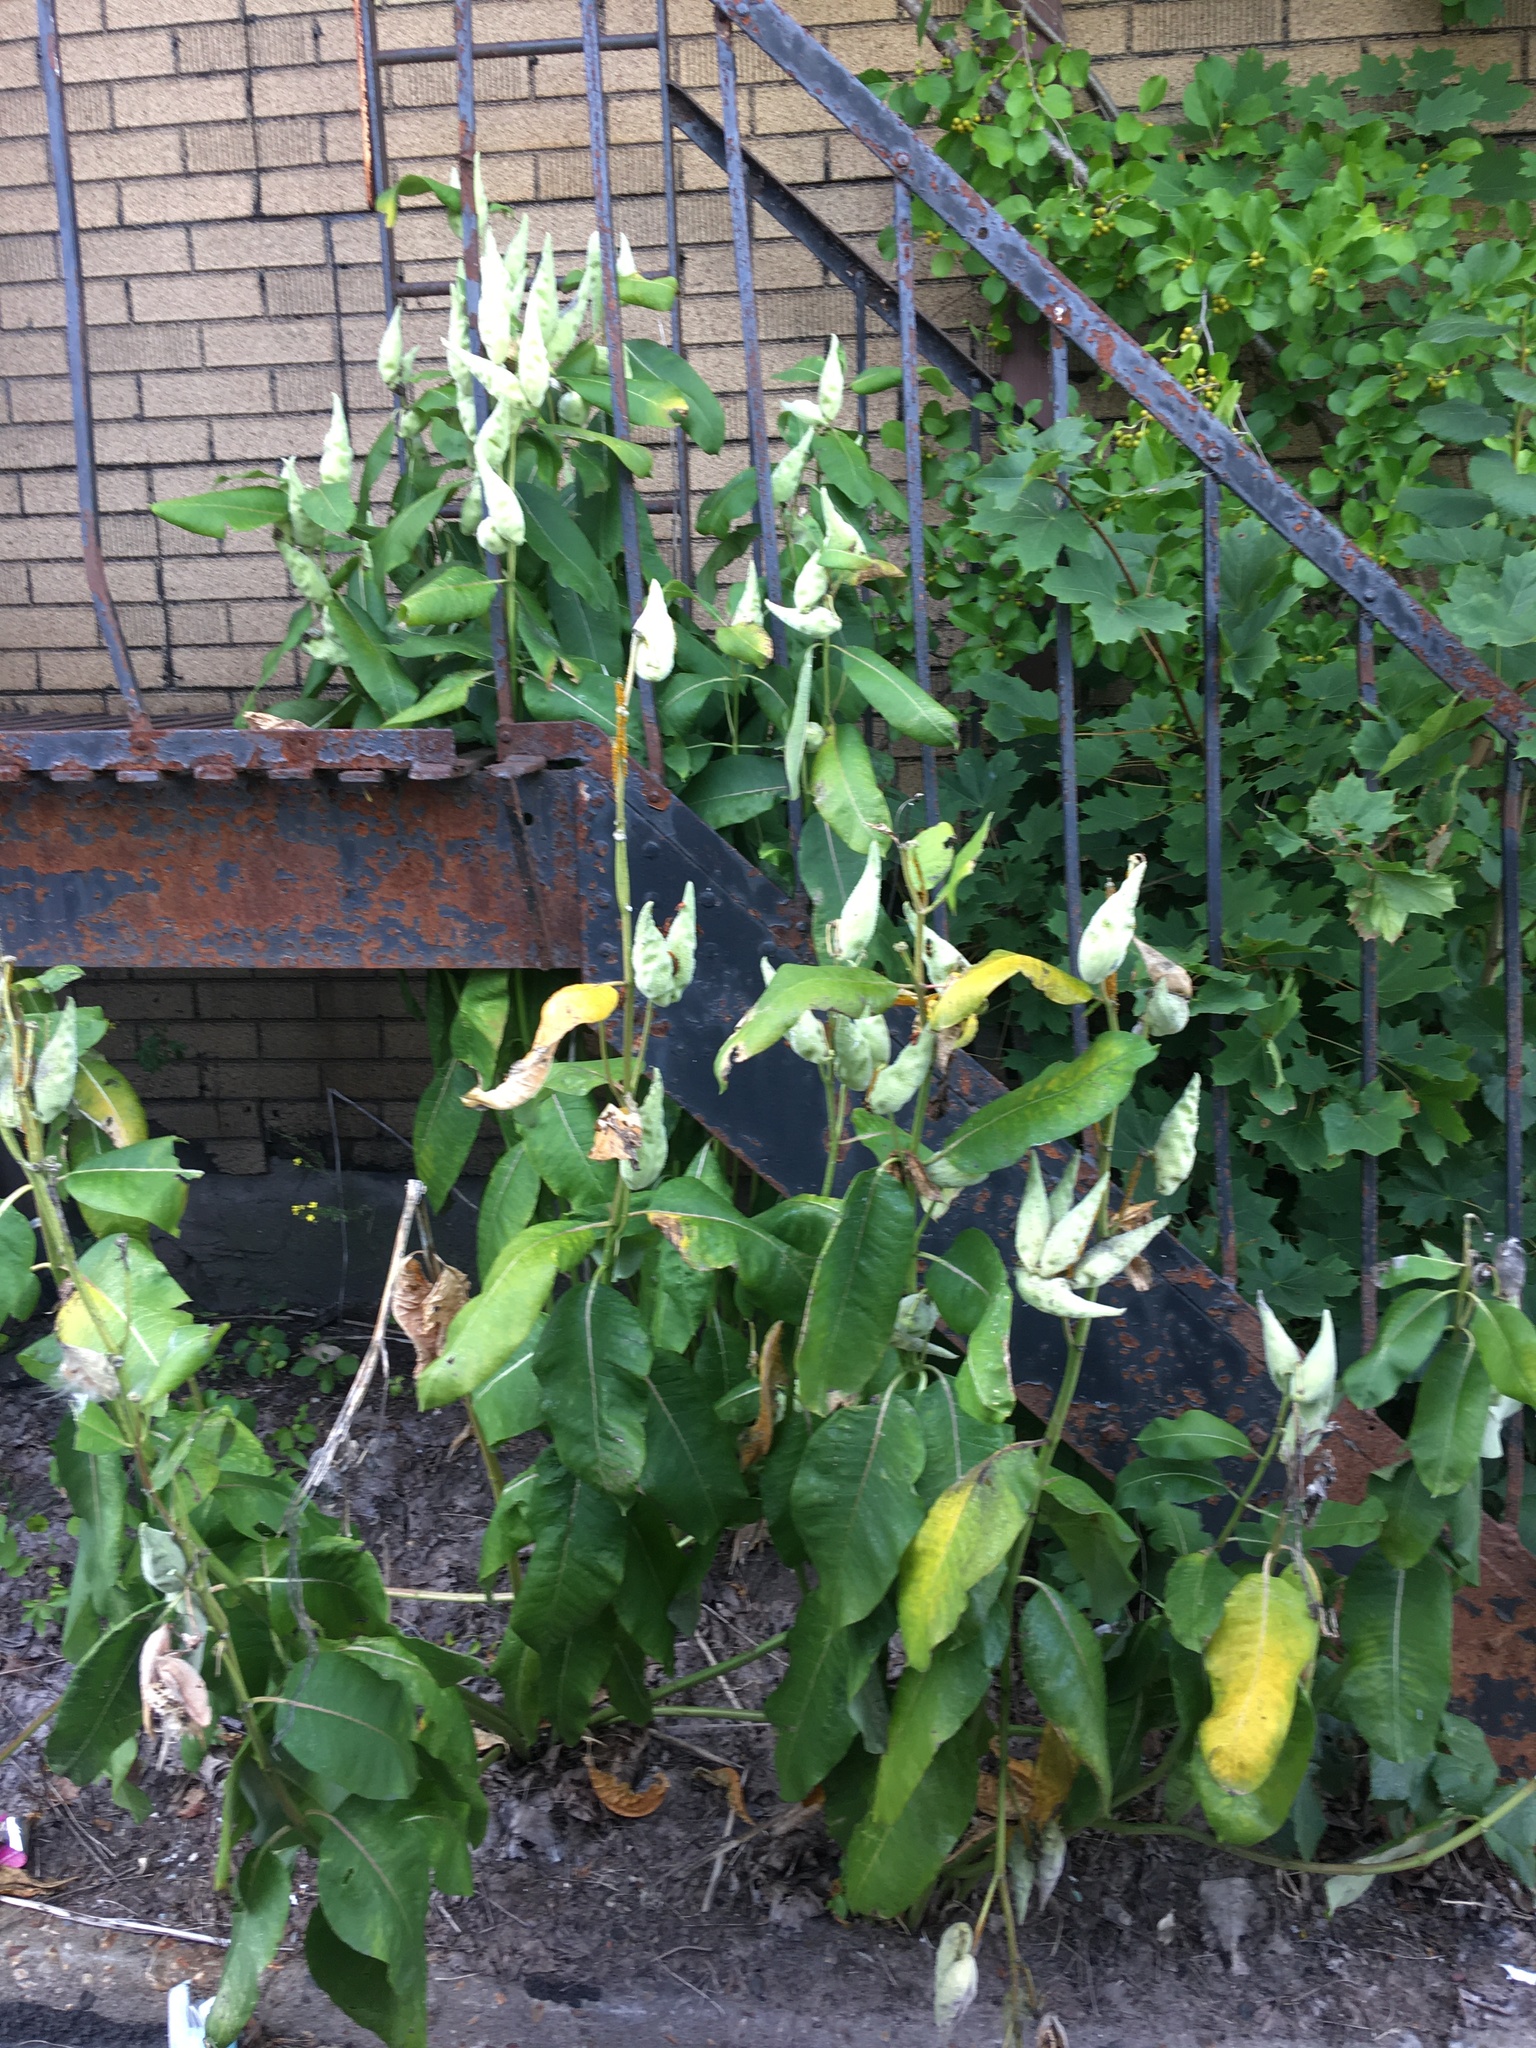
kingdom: Plantae
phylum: Tracheophyta
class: Magnoliopsida
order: Gentianales
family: Apocynaceae
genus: Asclepias
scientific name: Asclepias syriaca
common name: Common milkweed
